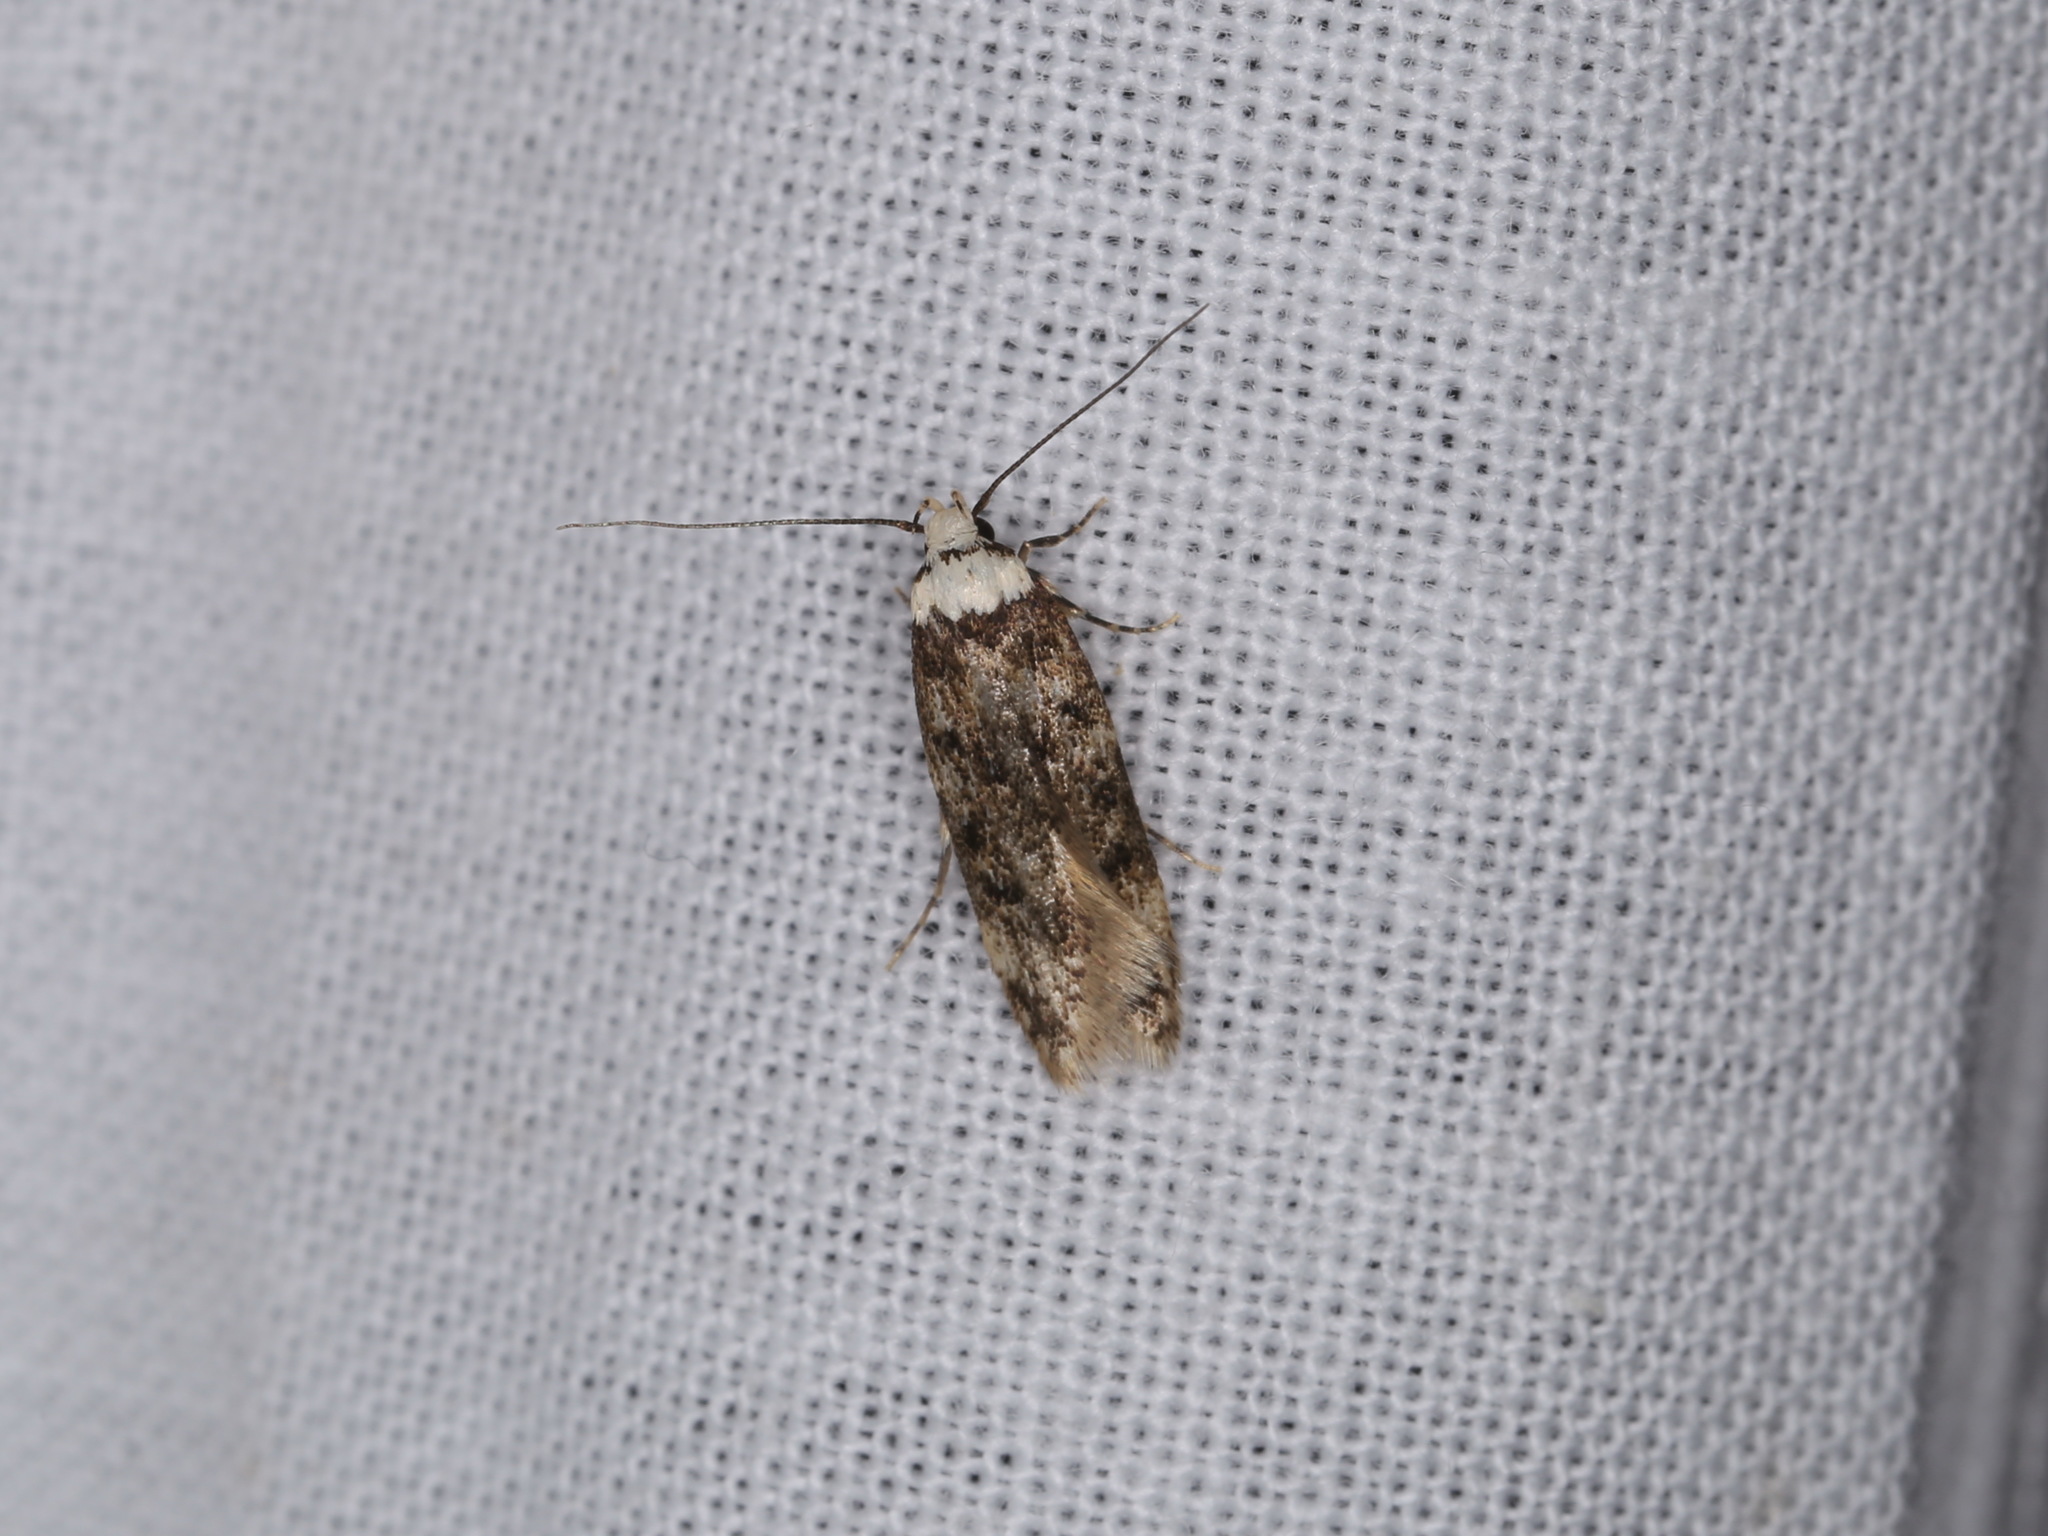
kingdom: Animalia
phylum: Arthropoda
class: Insecta
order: Lepidoptera
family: Oecophoridae
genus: Endrosis
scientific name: Endrosis sarcitrella
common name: White-shouldered house moth
